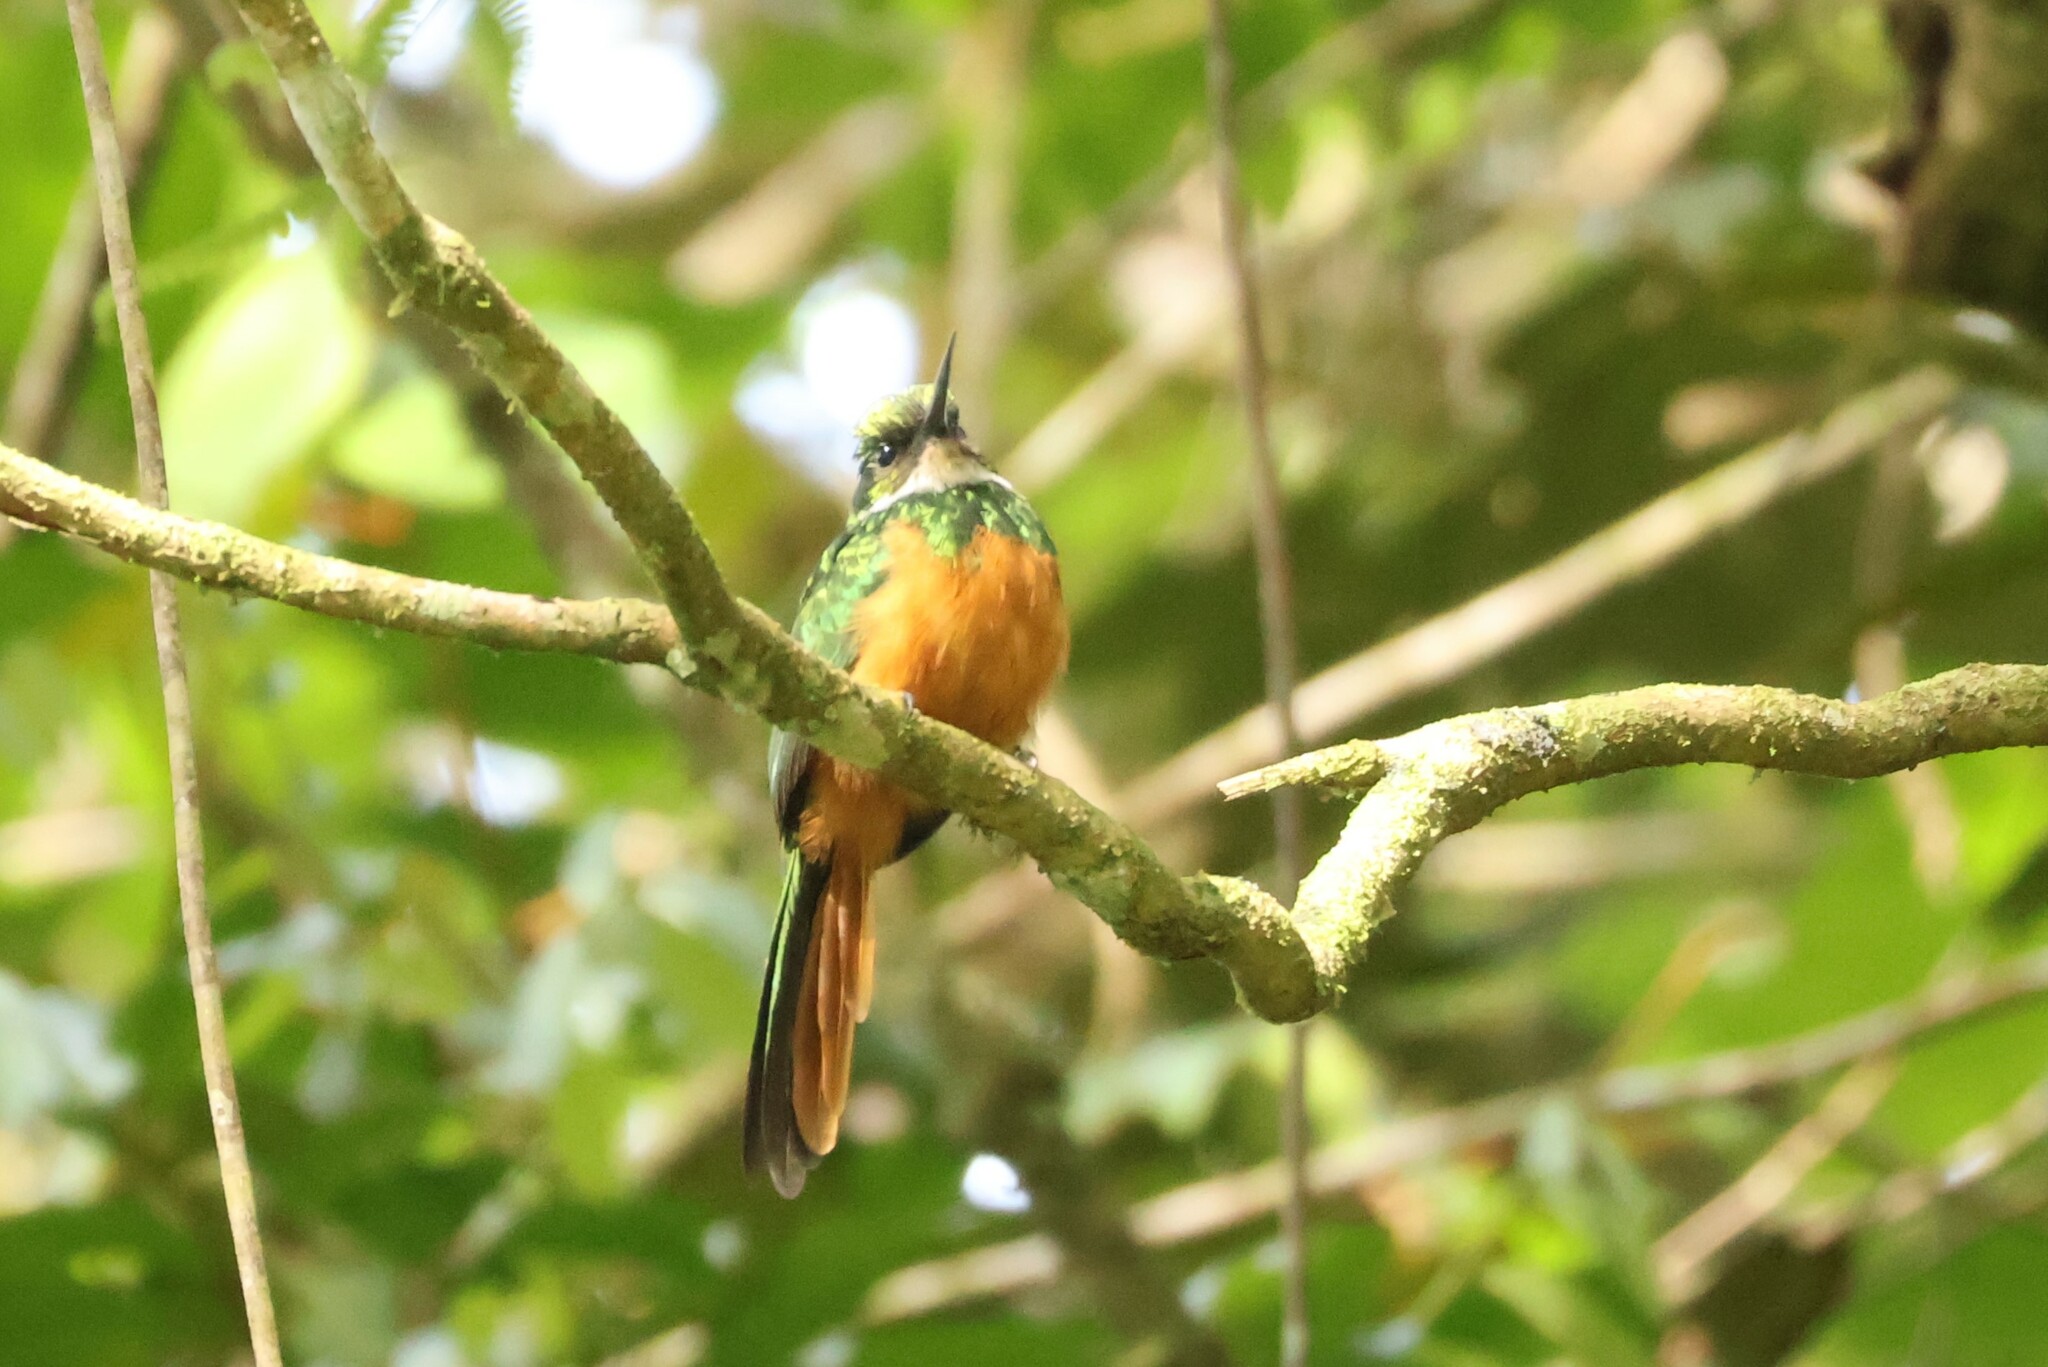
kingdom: Animalia
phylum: Chordata
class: Aves
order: Piciformes
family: Galbulidae
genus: Galbula
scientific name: Galbula ruficauda
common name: Rufous-tailed jacamar
